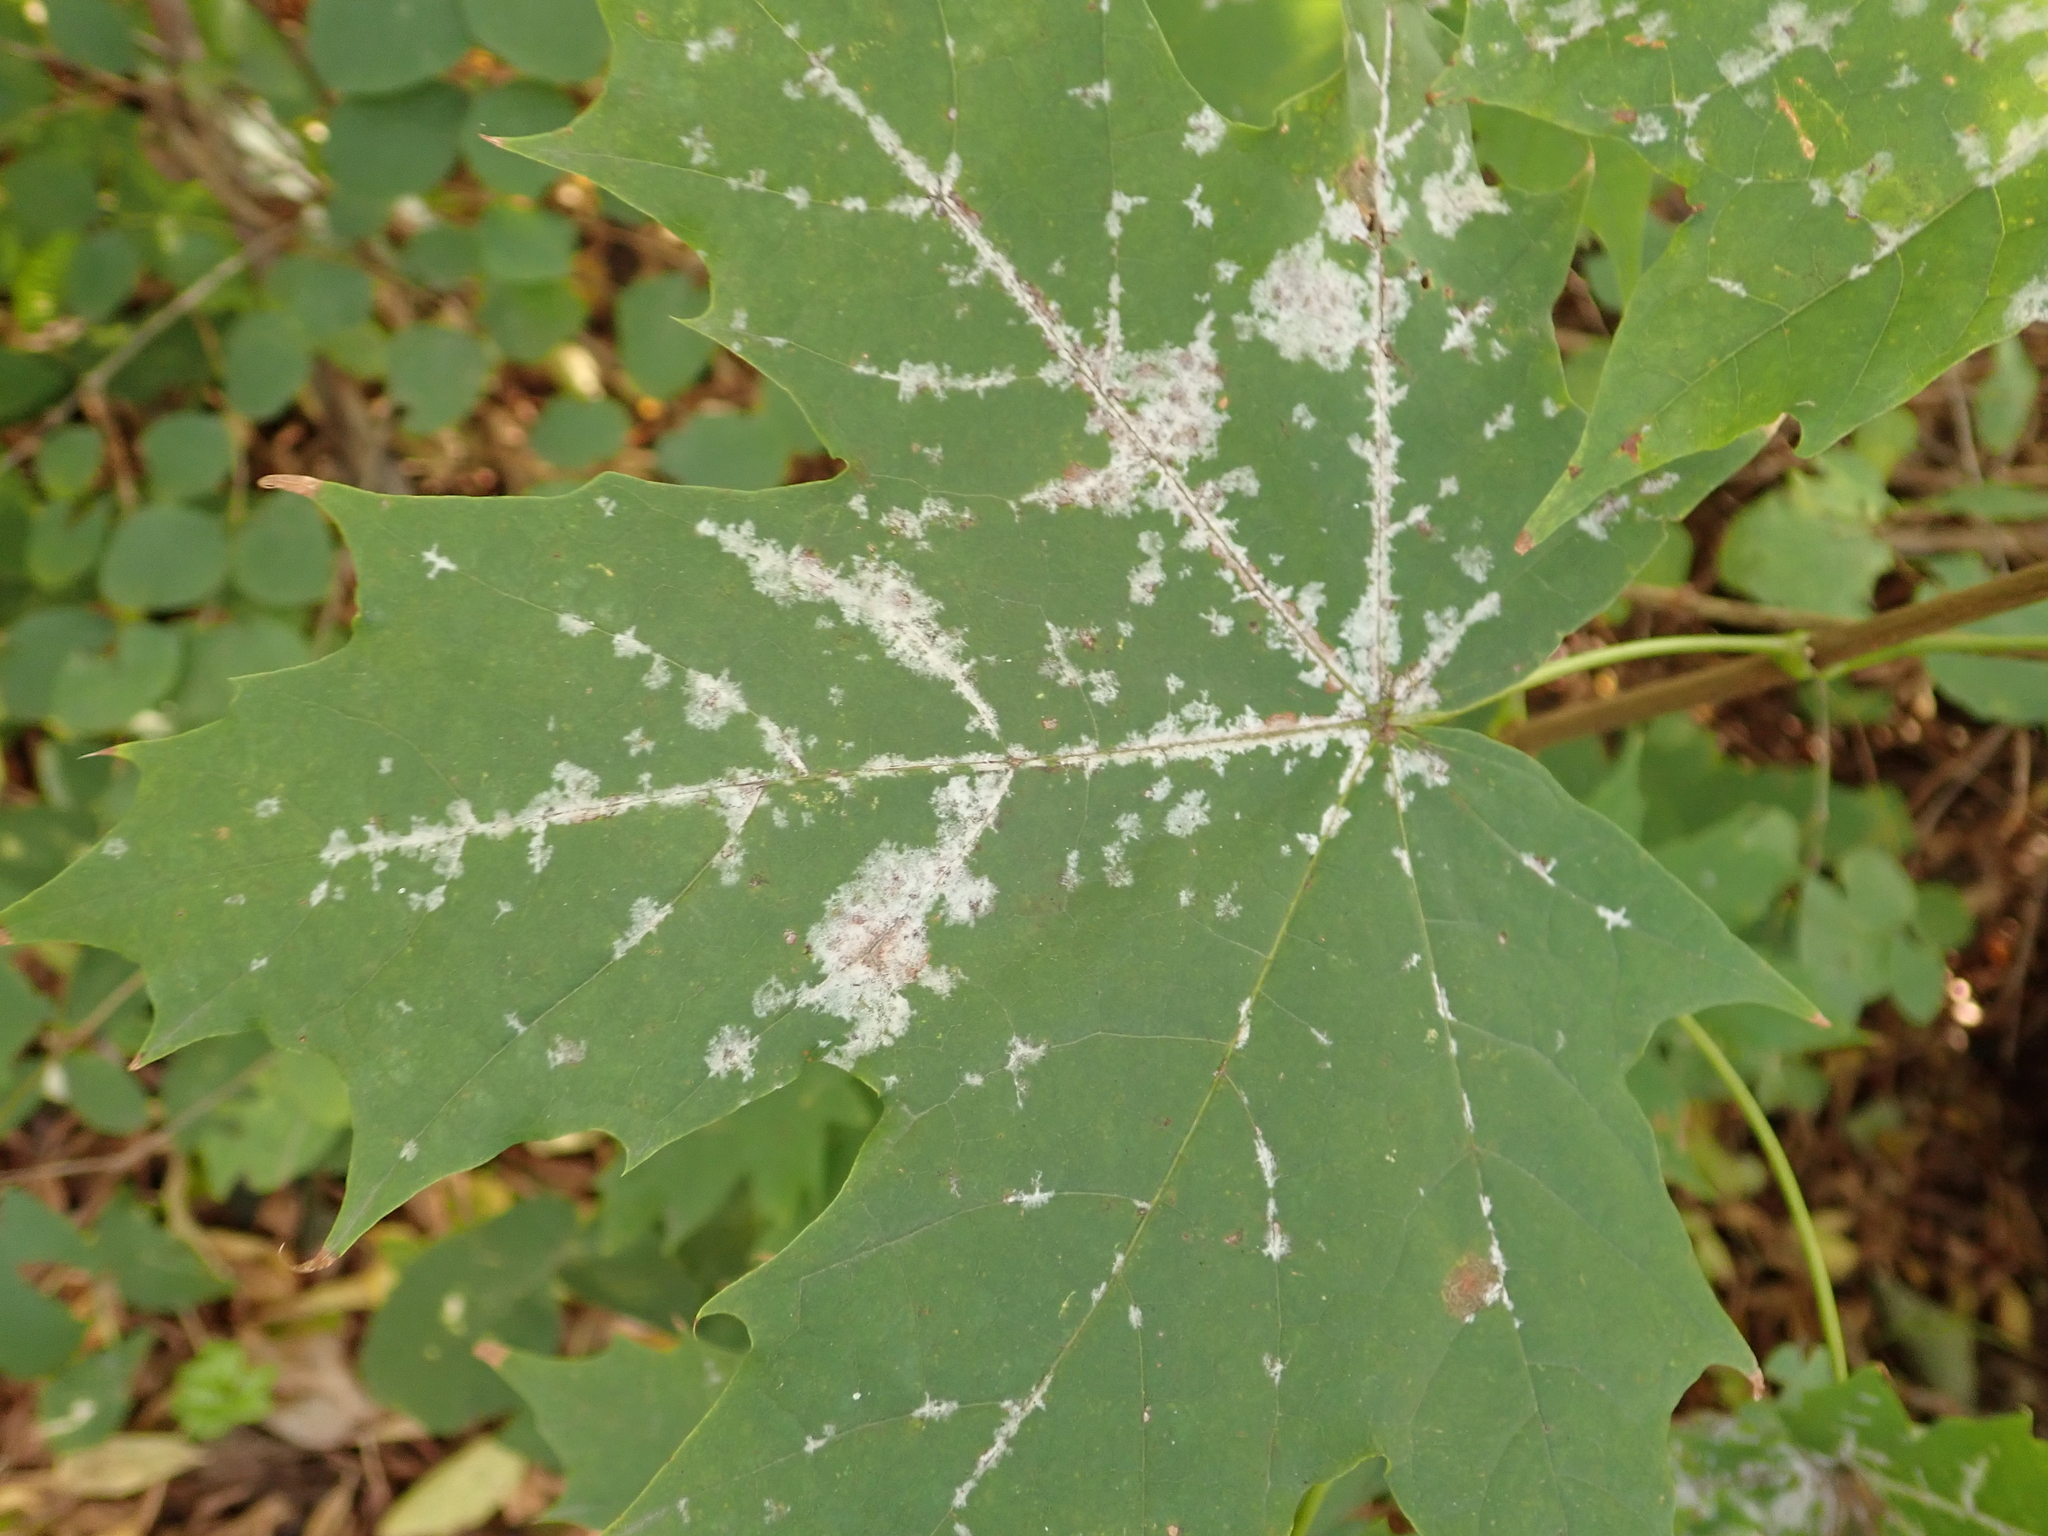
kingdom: Fungi
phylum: Ascomycota
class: Leotiomycetes
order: Helotiales
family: Erysiphaceae
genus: Sawadaea
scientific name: Sawadaea tulasnei
